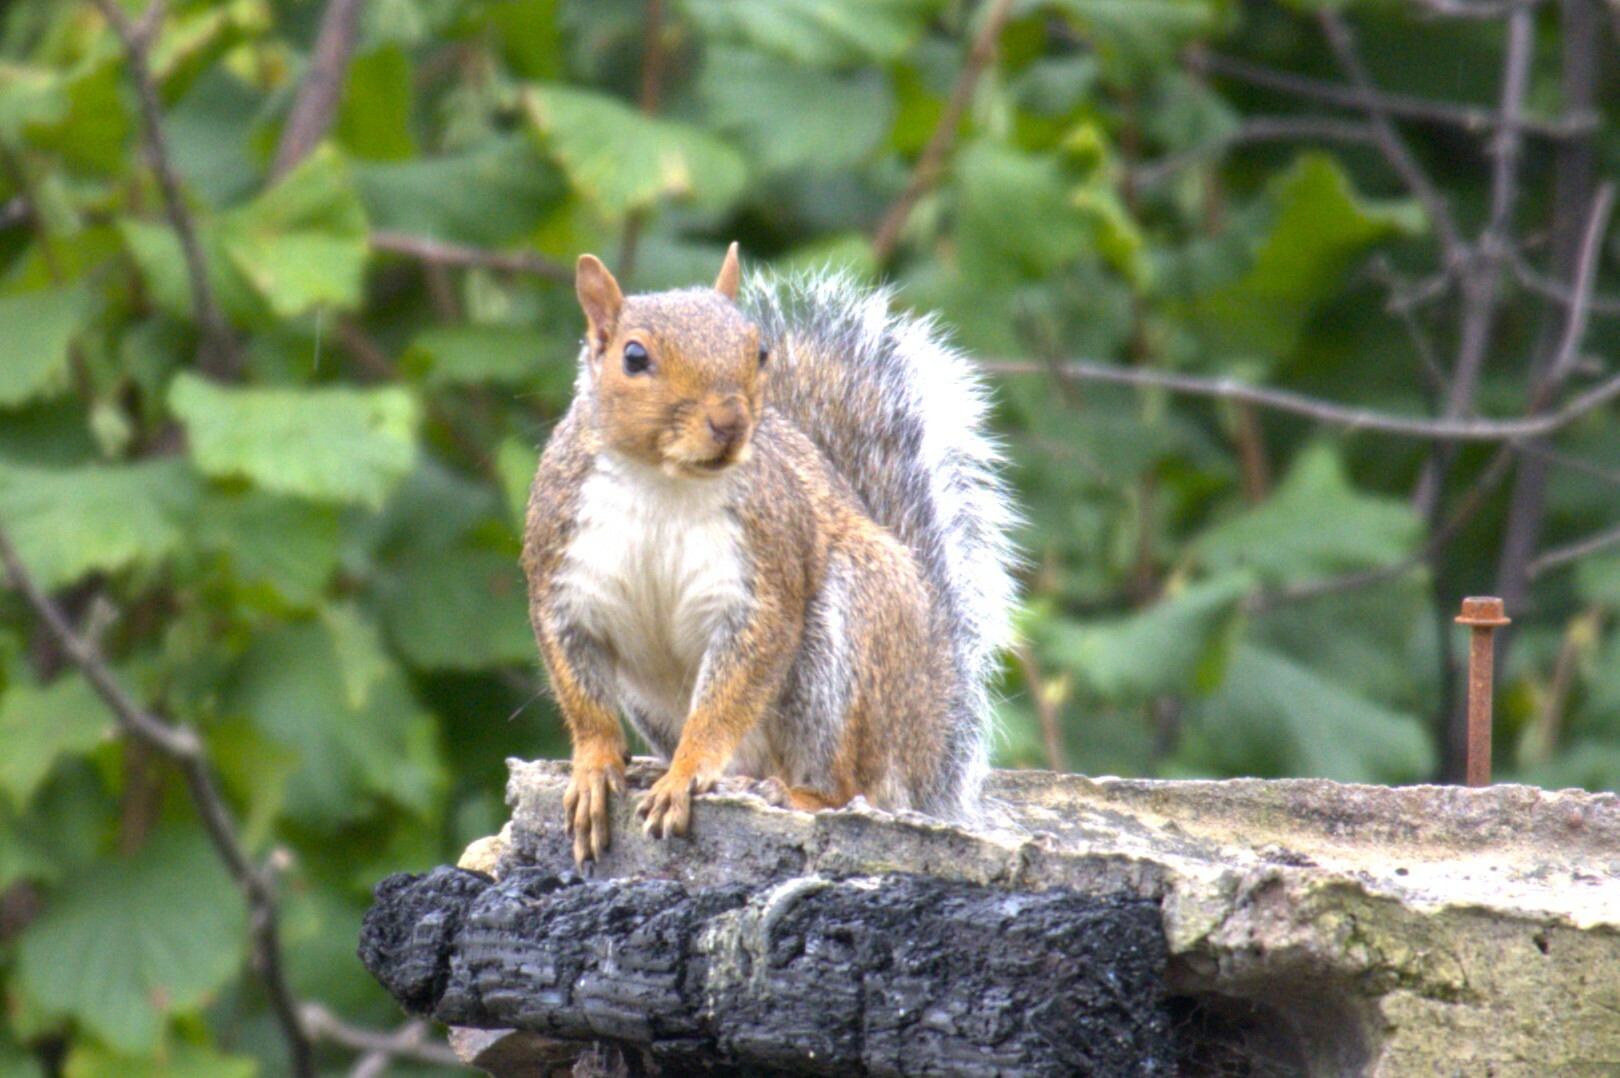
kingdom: Animalia
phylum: Chordata
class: Mammalia
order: Rodentia
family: Sciuridae
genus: Sciurus
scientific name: Sciurus carolinensis
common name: Eastern gray squirrel
